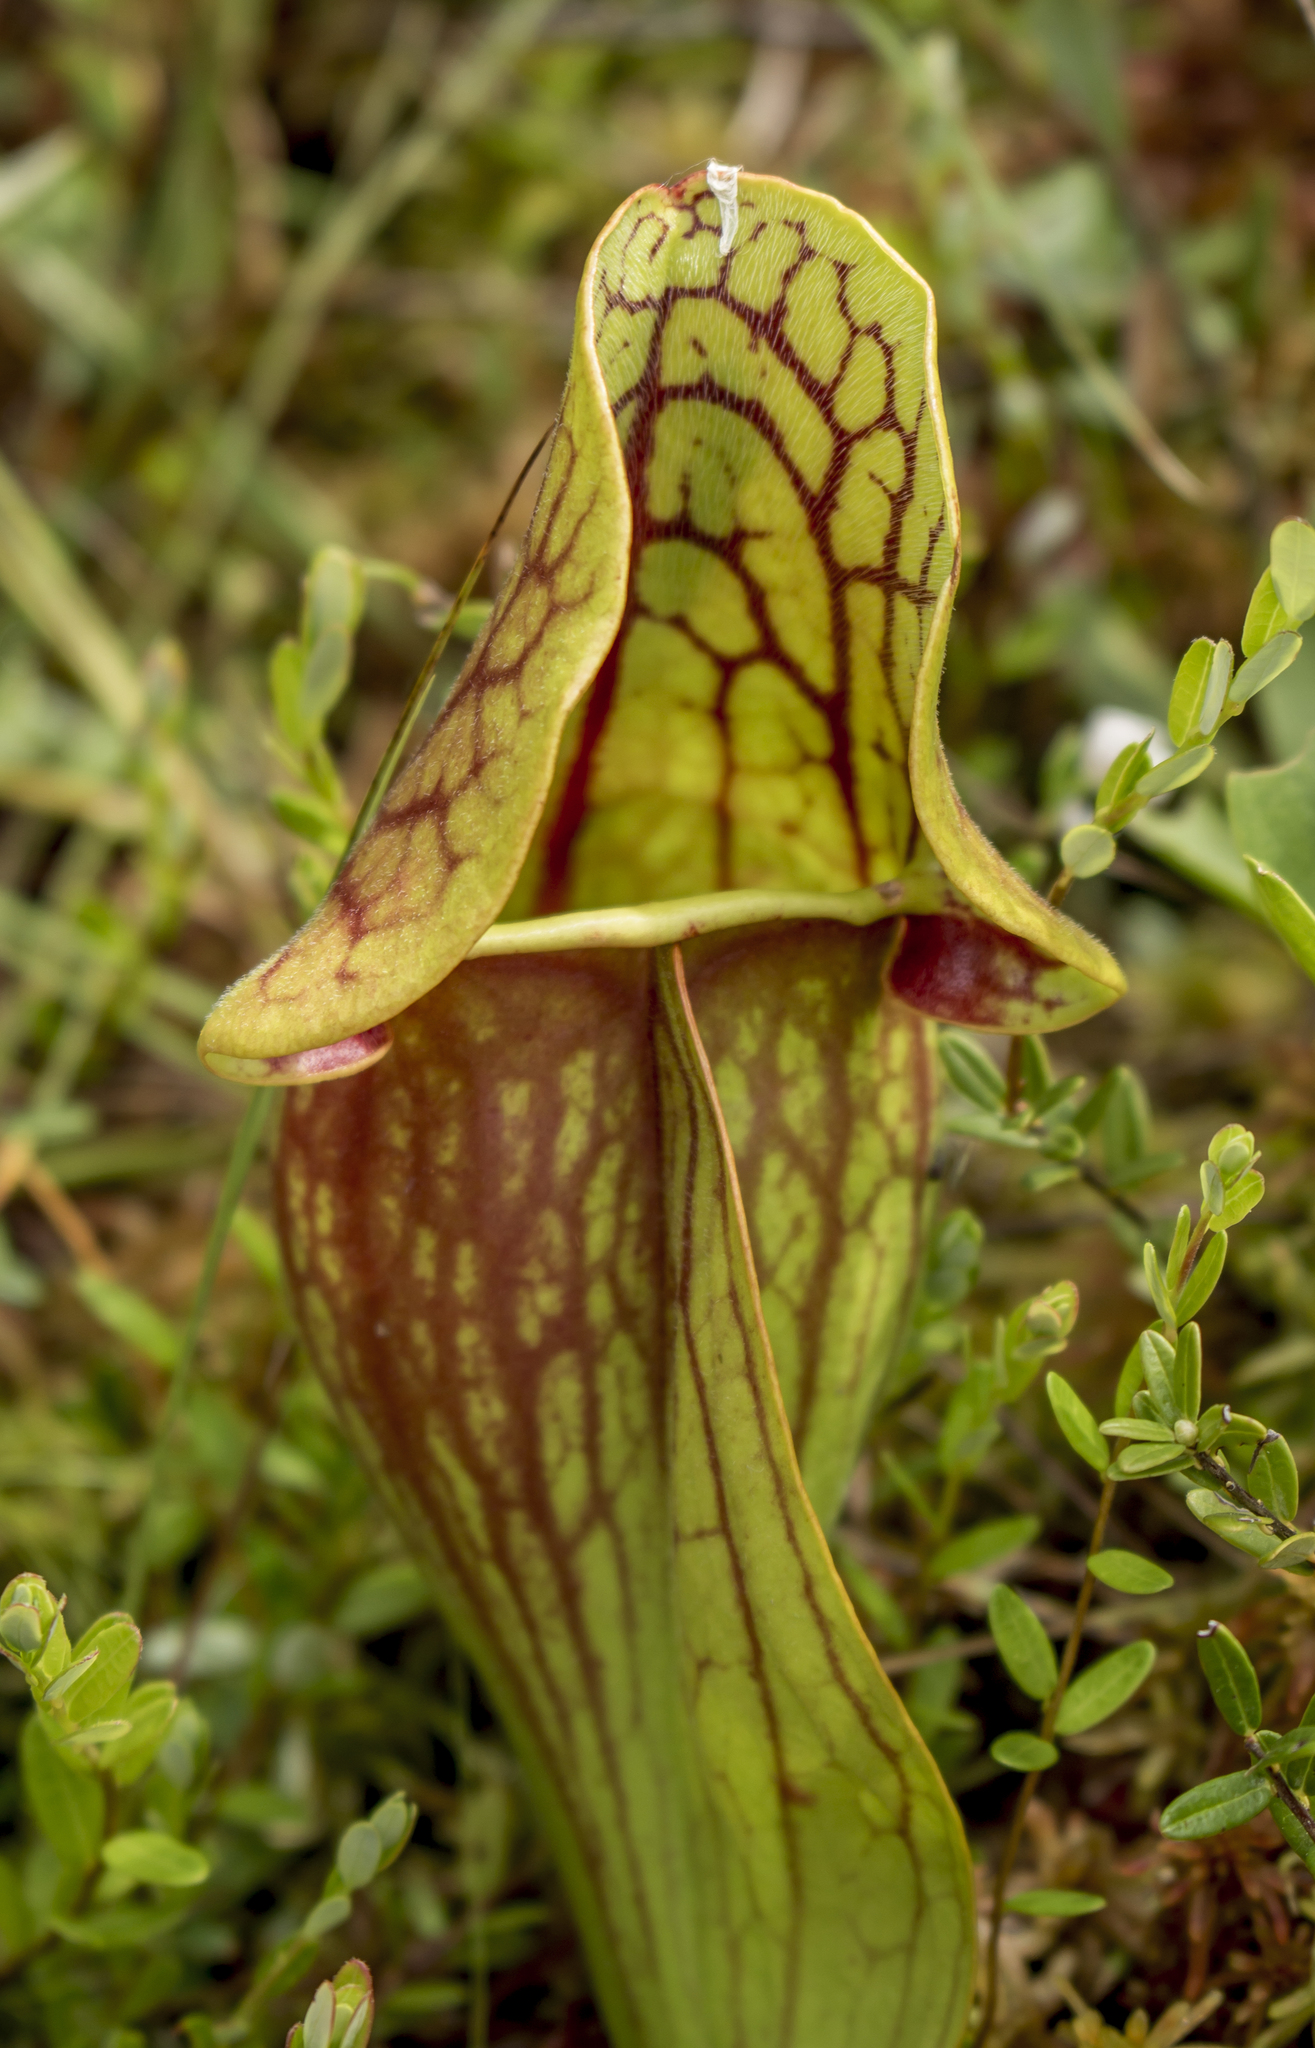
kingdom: Plantae
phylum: Tracheophyta
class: Magnoliopsida
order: Ericales
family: Sarraceniaceae
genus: Sarracenia
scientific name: Sarracenia purpurea
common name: Pitcherplant
